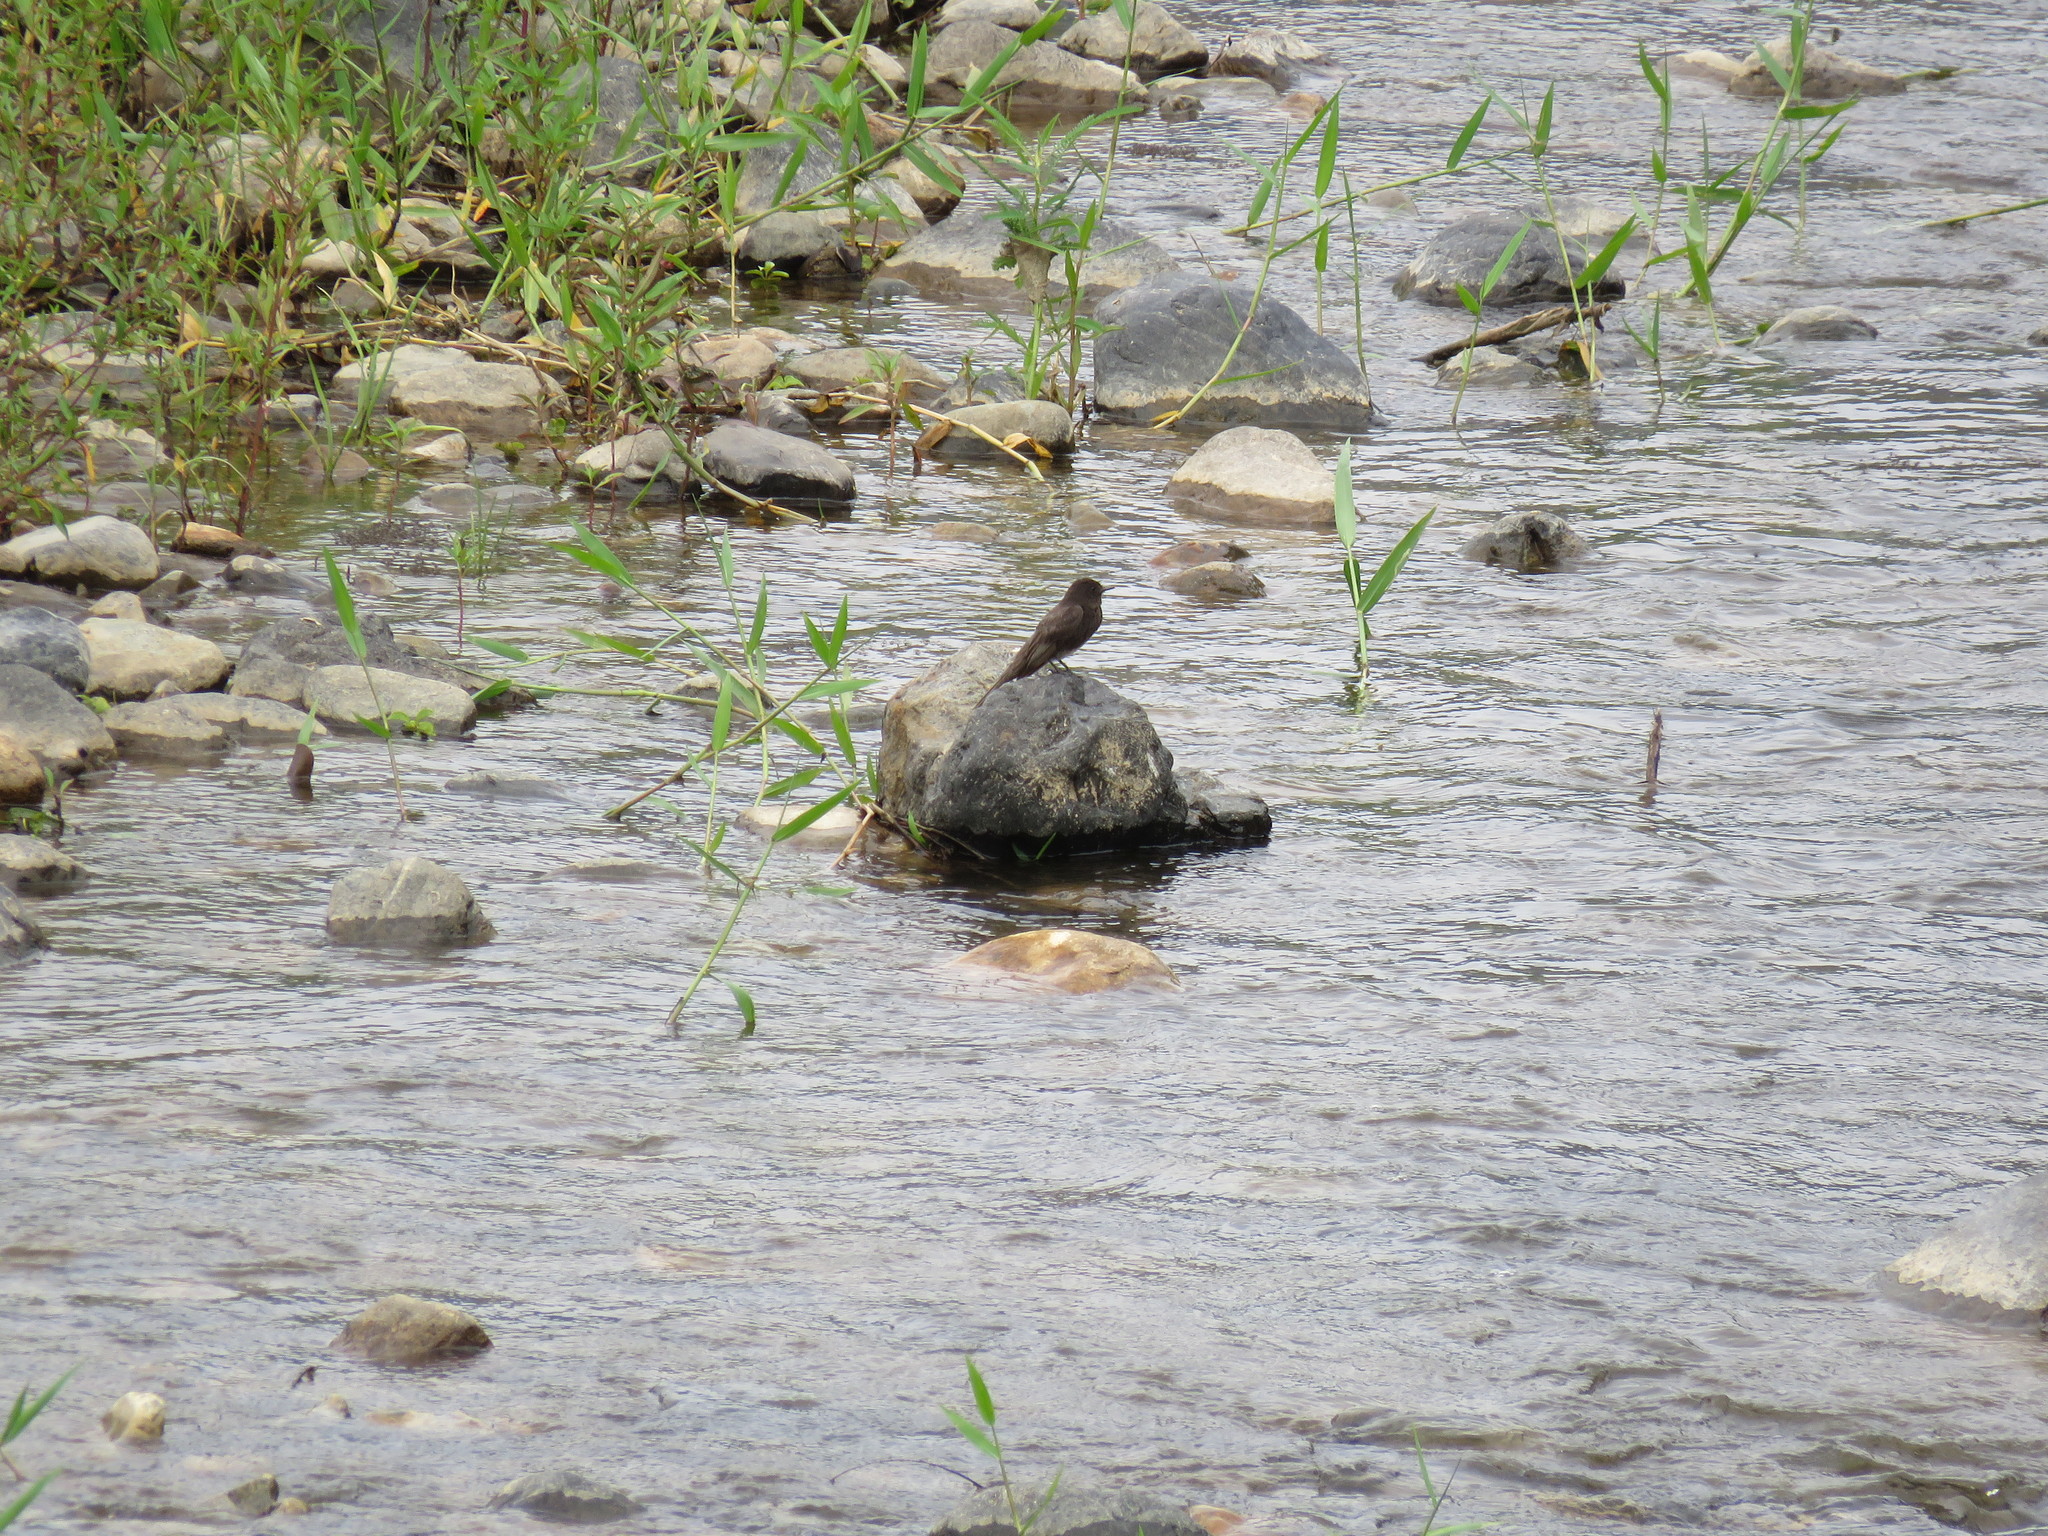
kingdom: Animalia
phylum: Chordata
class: Aves
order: Passeriformes
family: Tyrannidae
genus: Sayornis
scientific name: Sayornis nigricans
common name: Black phoebe
